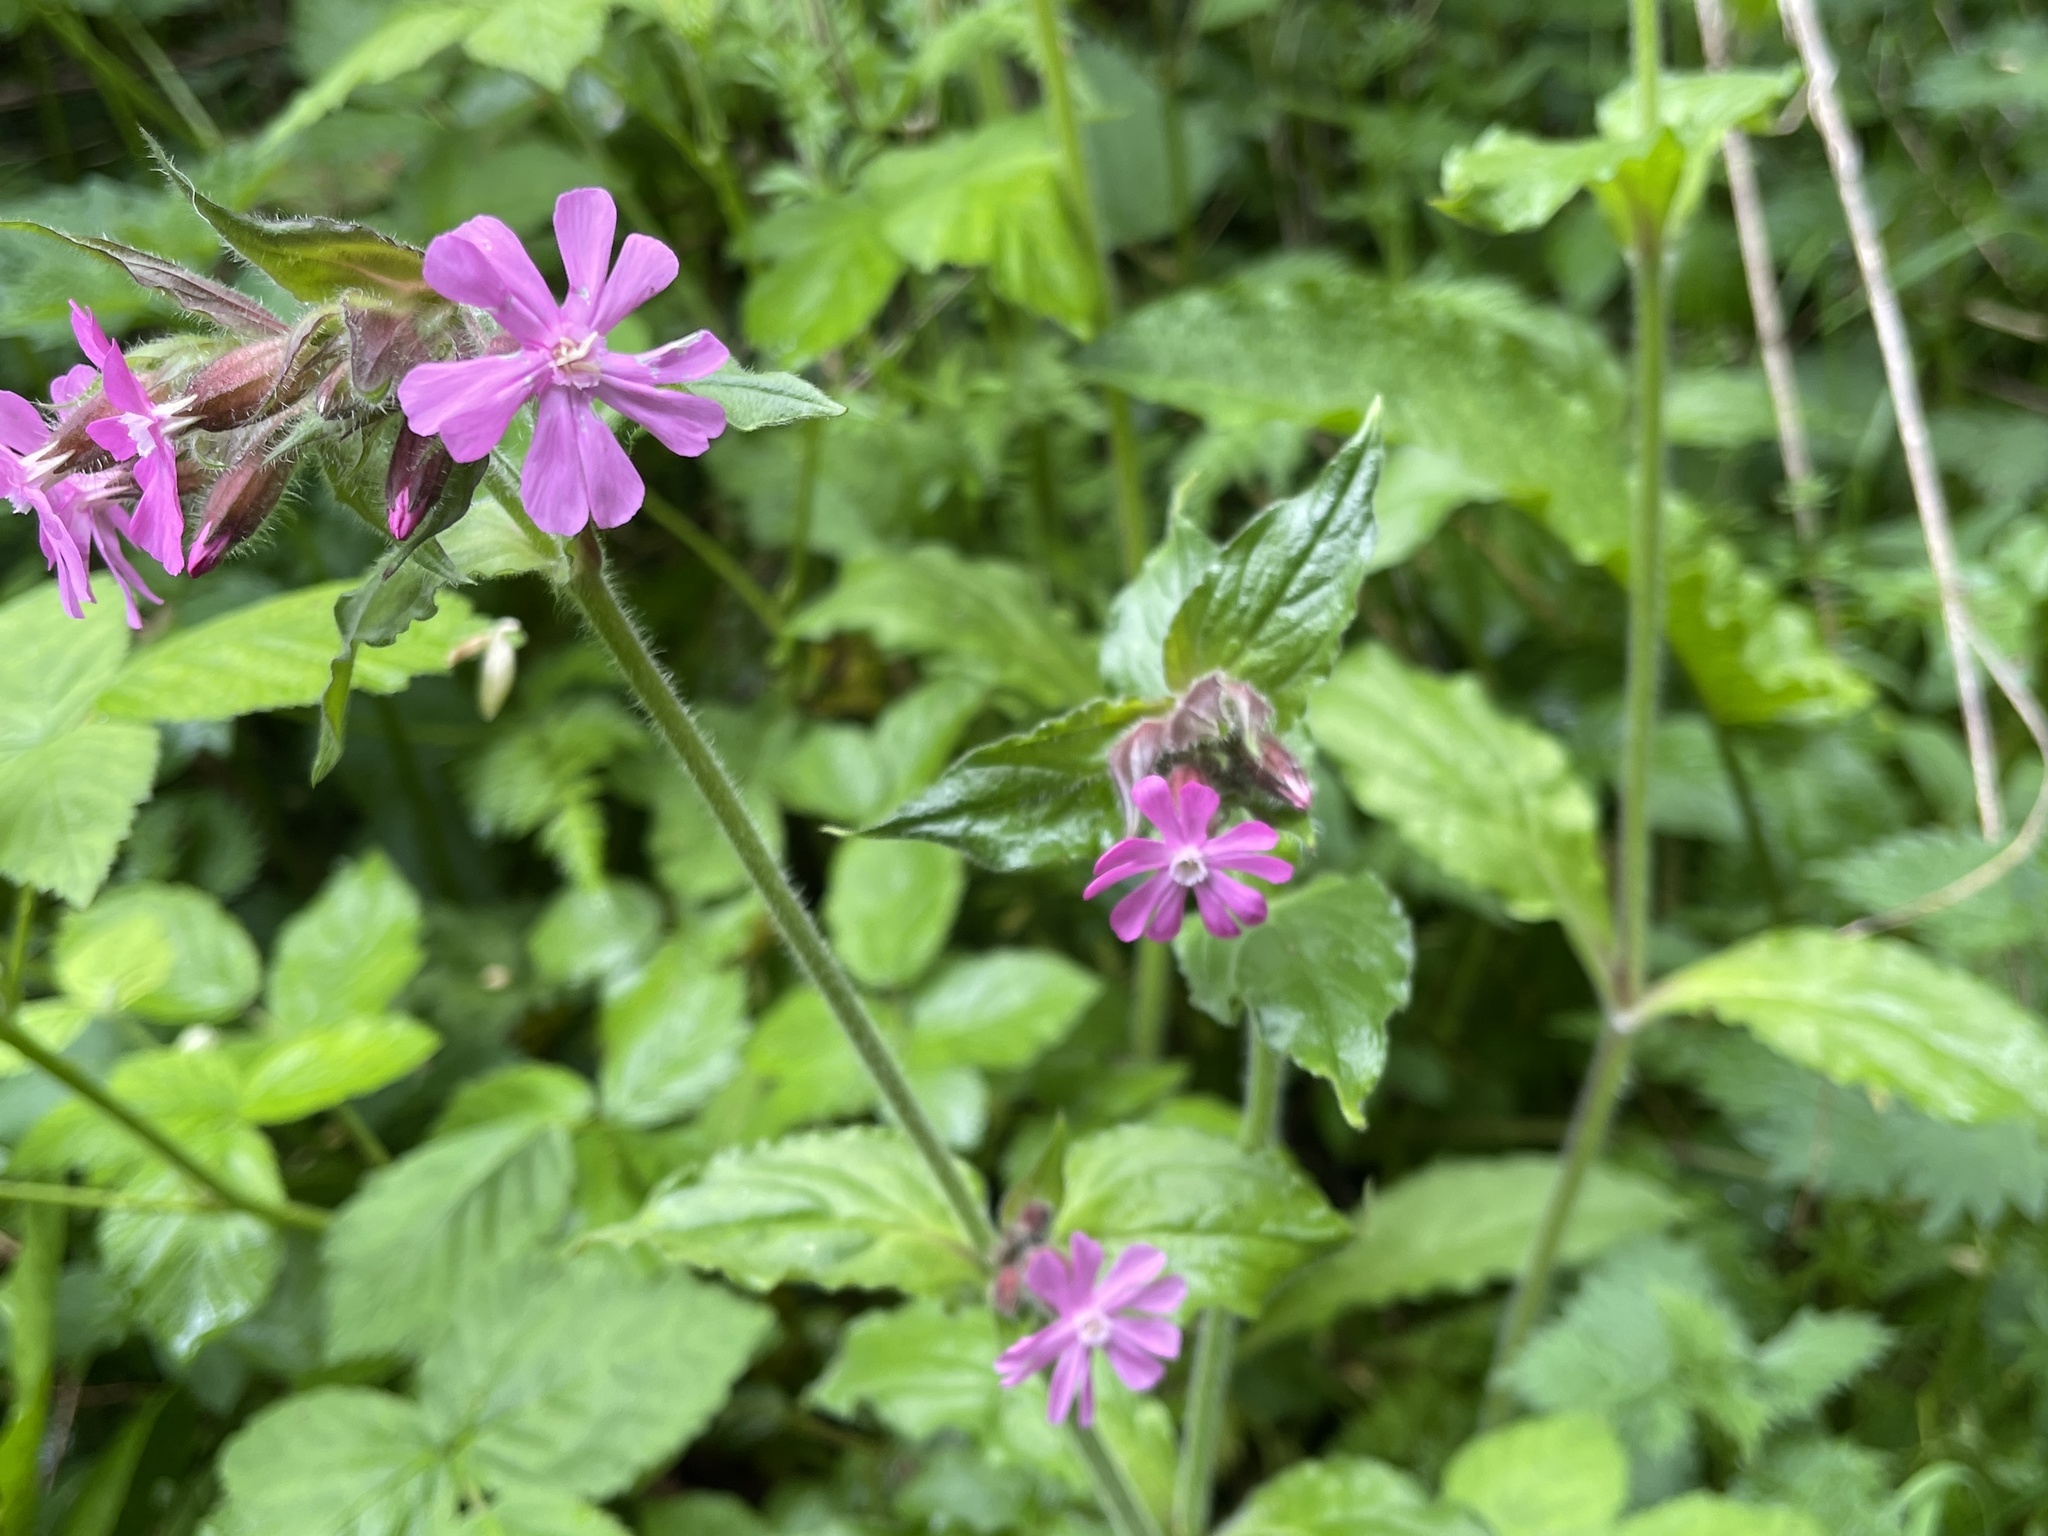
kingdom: Plantae
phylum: Tracheophyta
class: Magnoliopsida
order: Caryophyllales
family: Caryophyllaceae
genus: Silene
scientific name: Silene dioica
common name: Red campion
